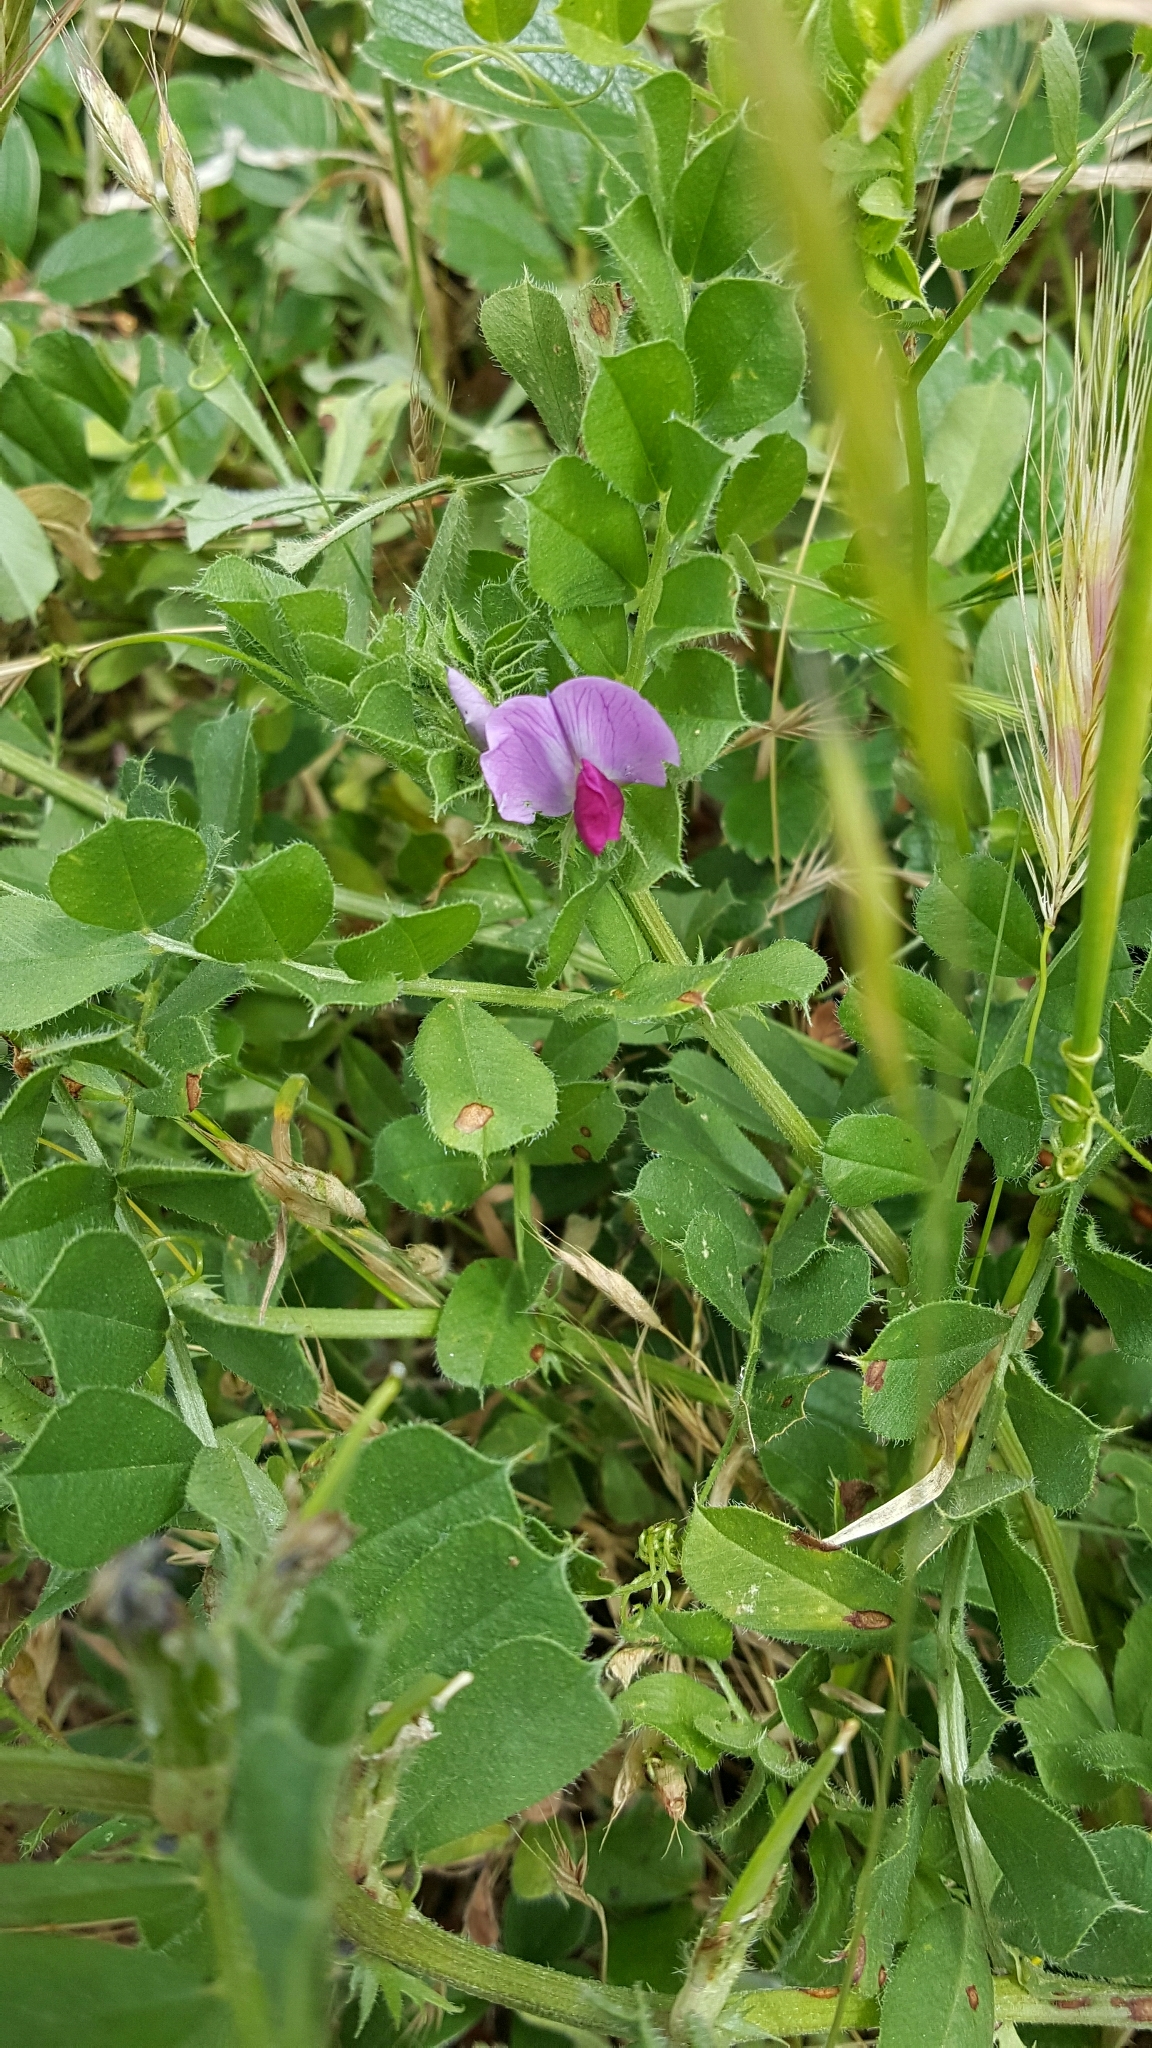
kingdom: Plantae
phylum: Tracheophyta
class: Magnoliopsida
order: Fabales
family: Fabaceae
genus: Vicia
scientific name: Vicia sativa
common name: Garden vetch
